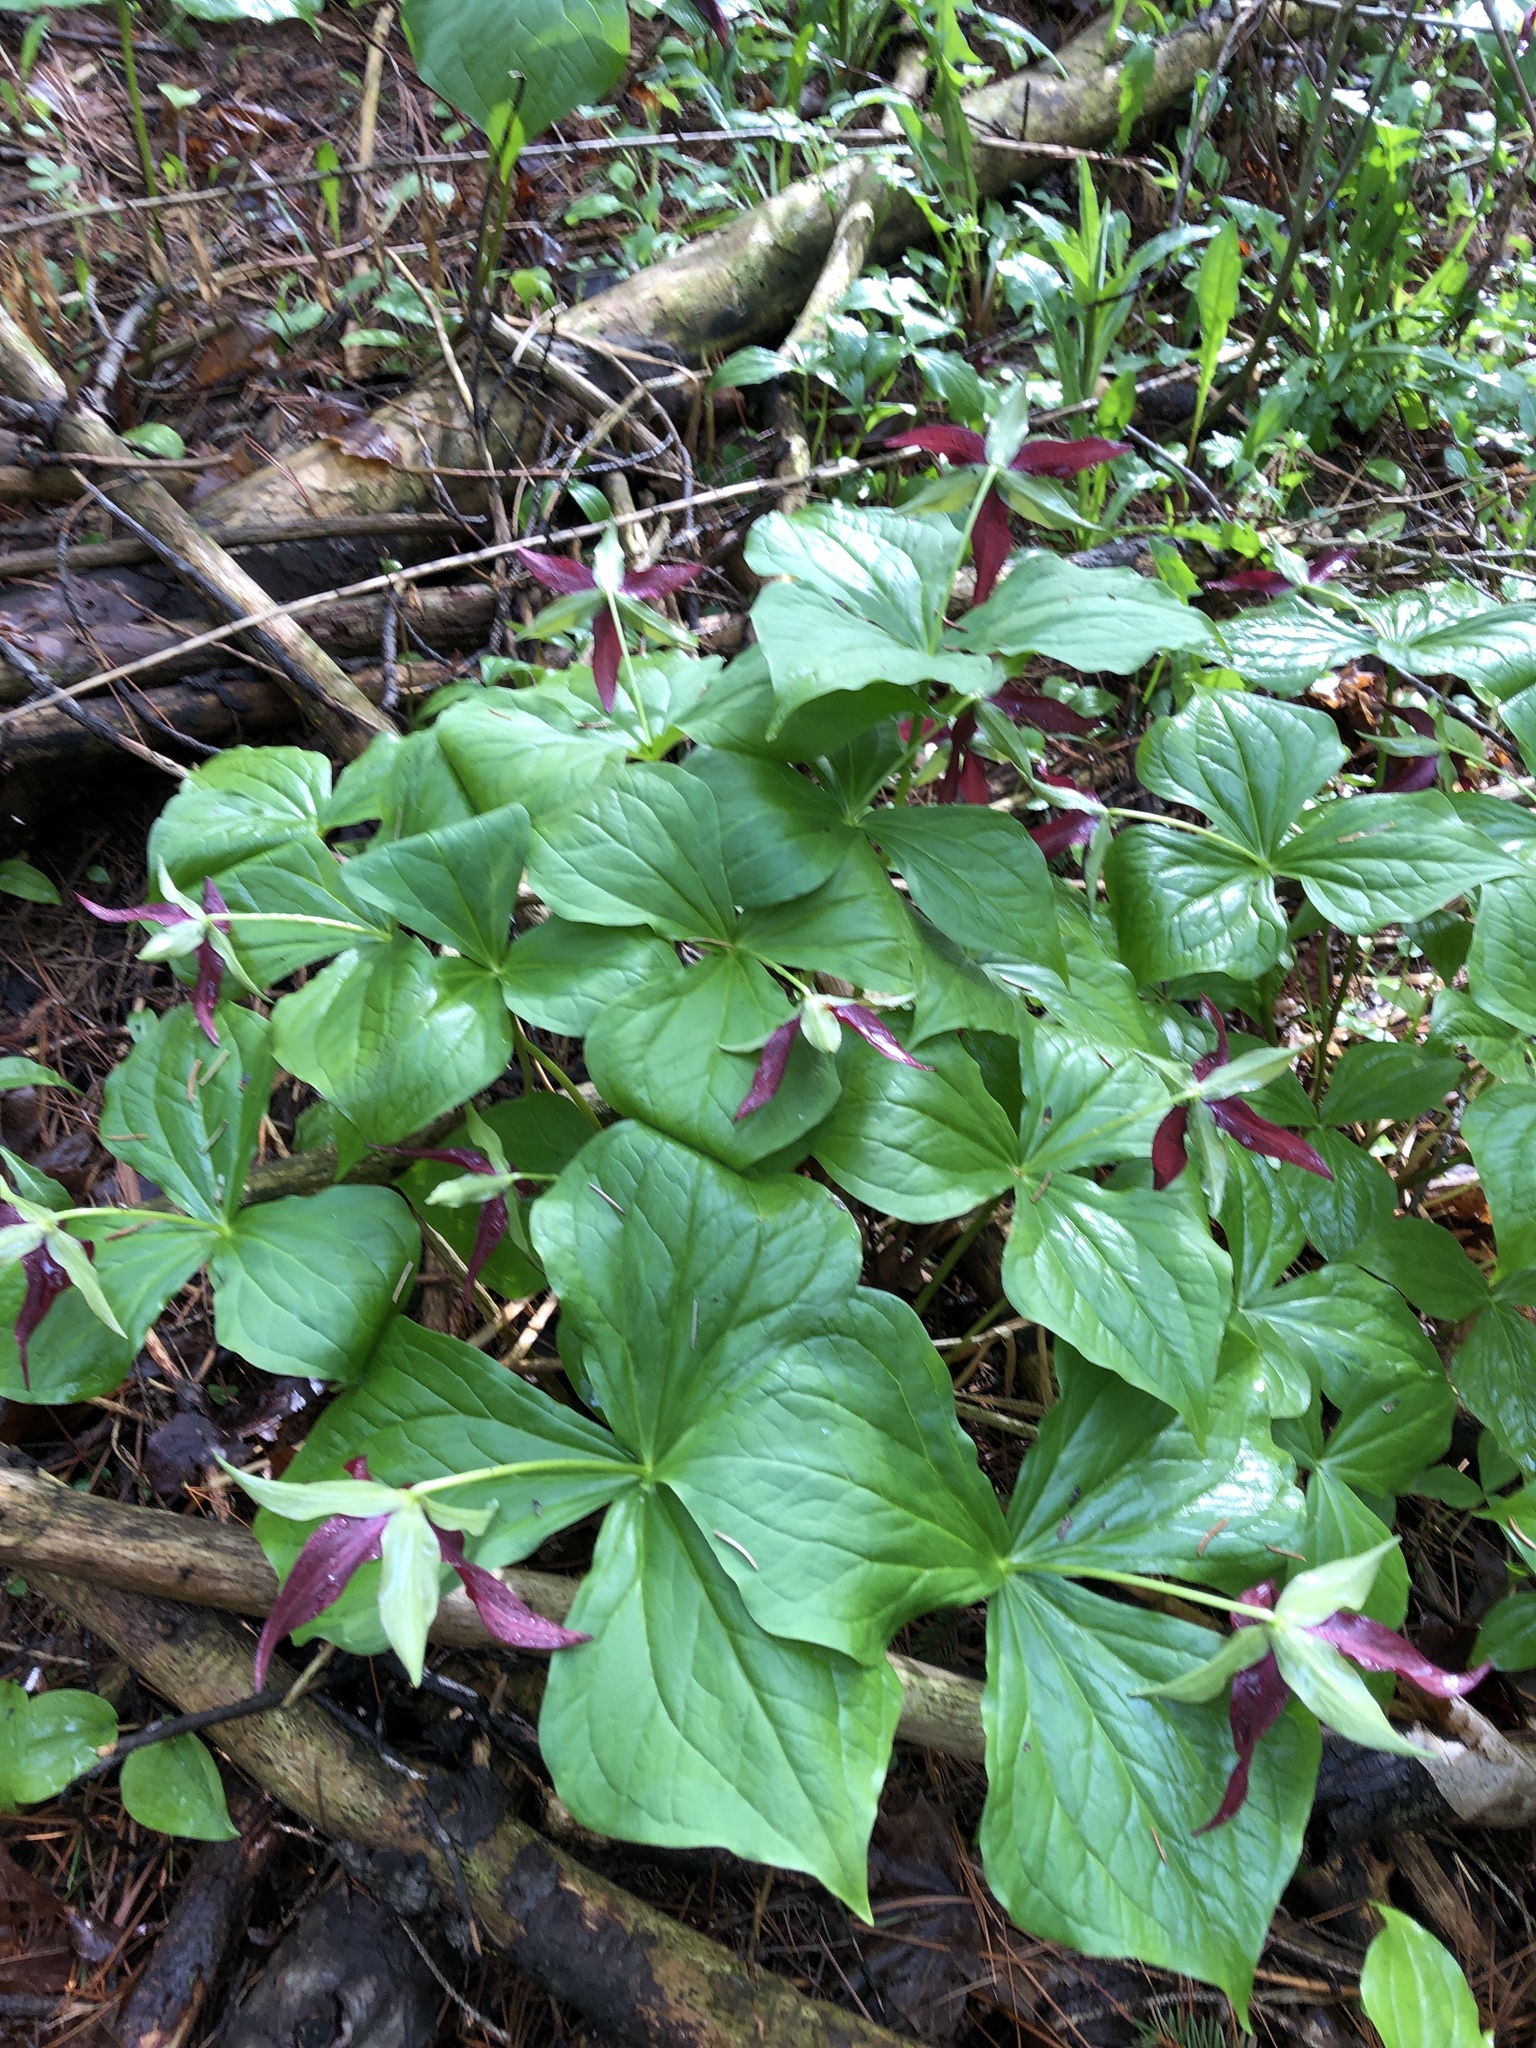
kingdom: Plantae
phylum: Tracheophyta
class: Liliopsida
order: Liliales
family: Melanthiaceae
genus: Trillium
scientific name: Trillium erectum
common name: Purple trillium
